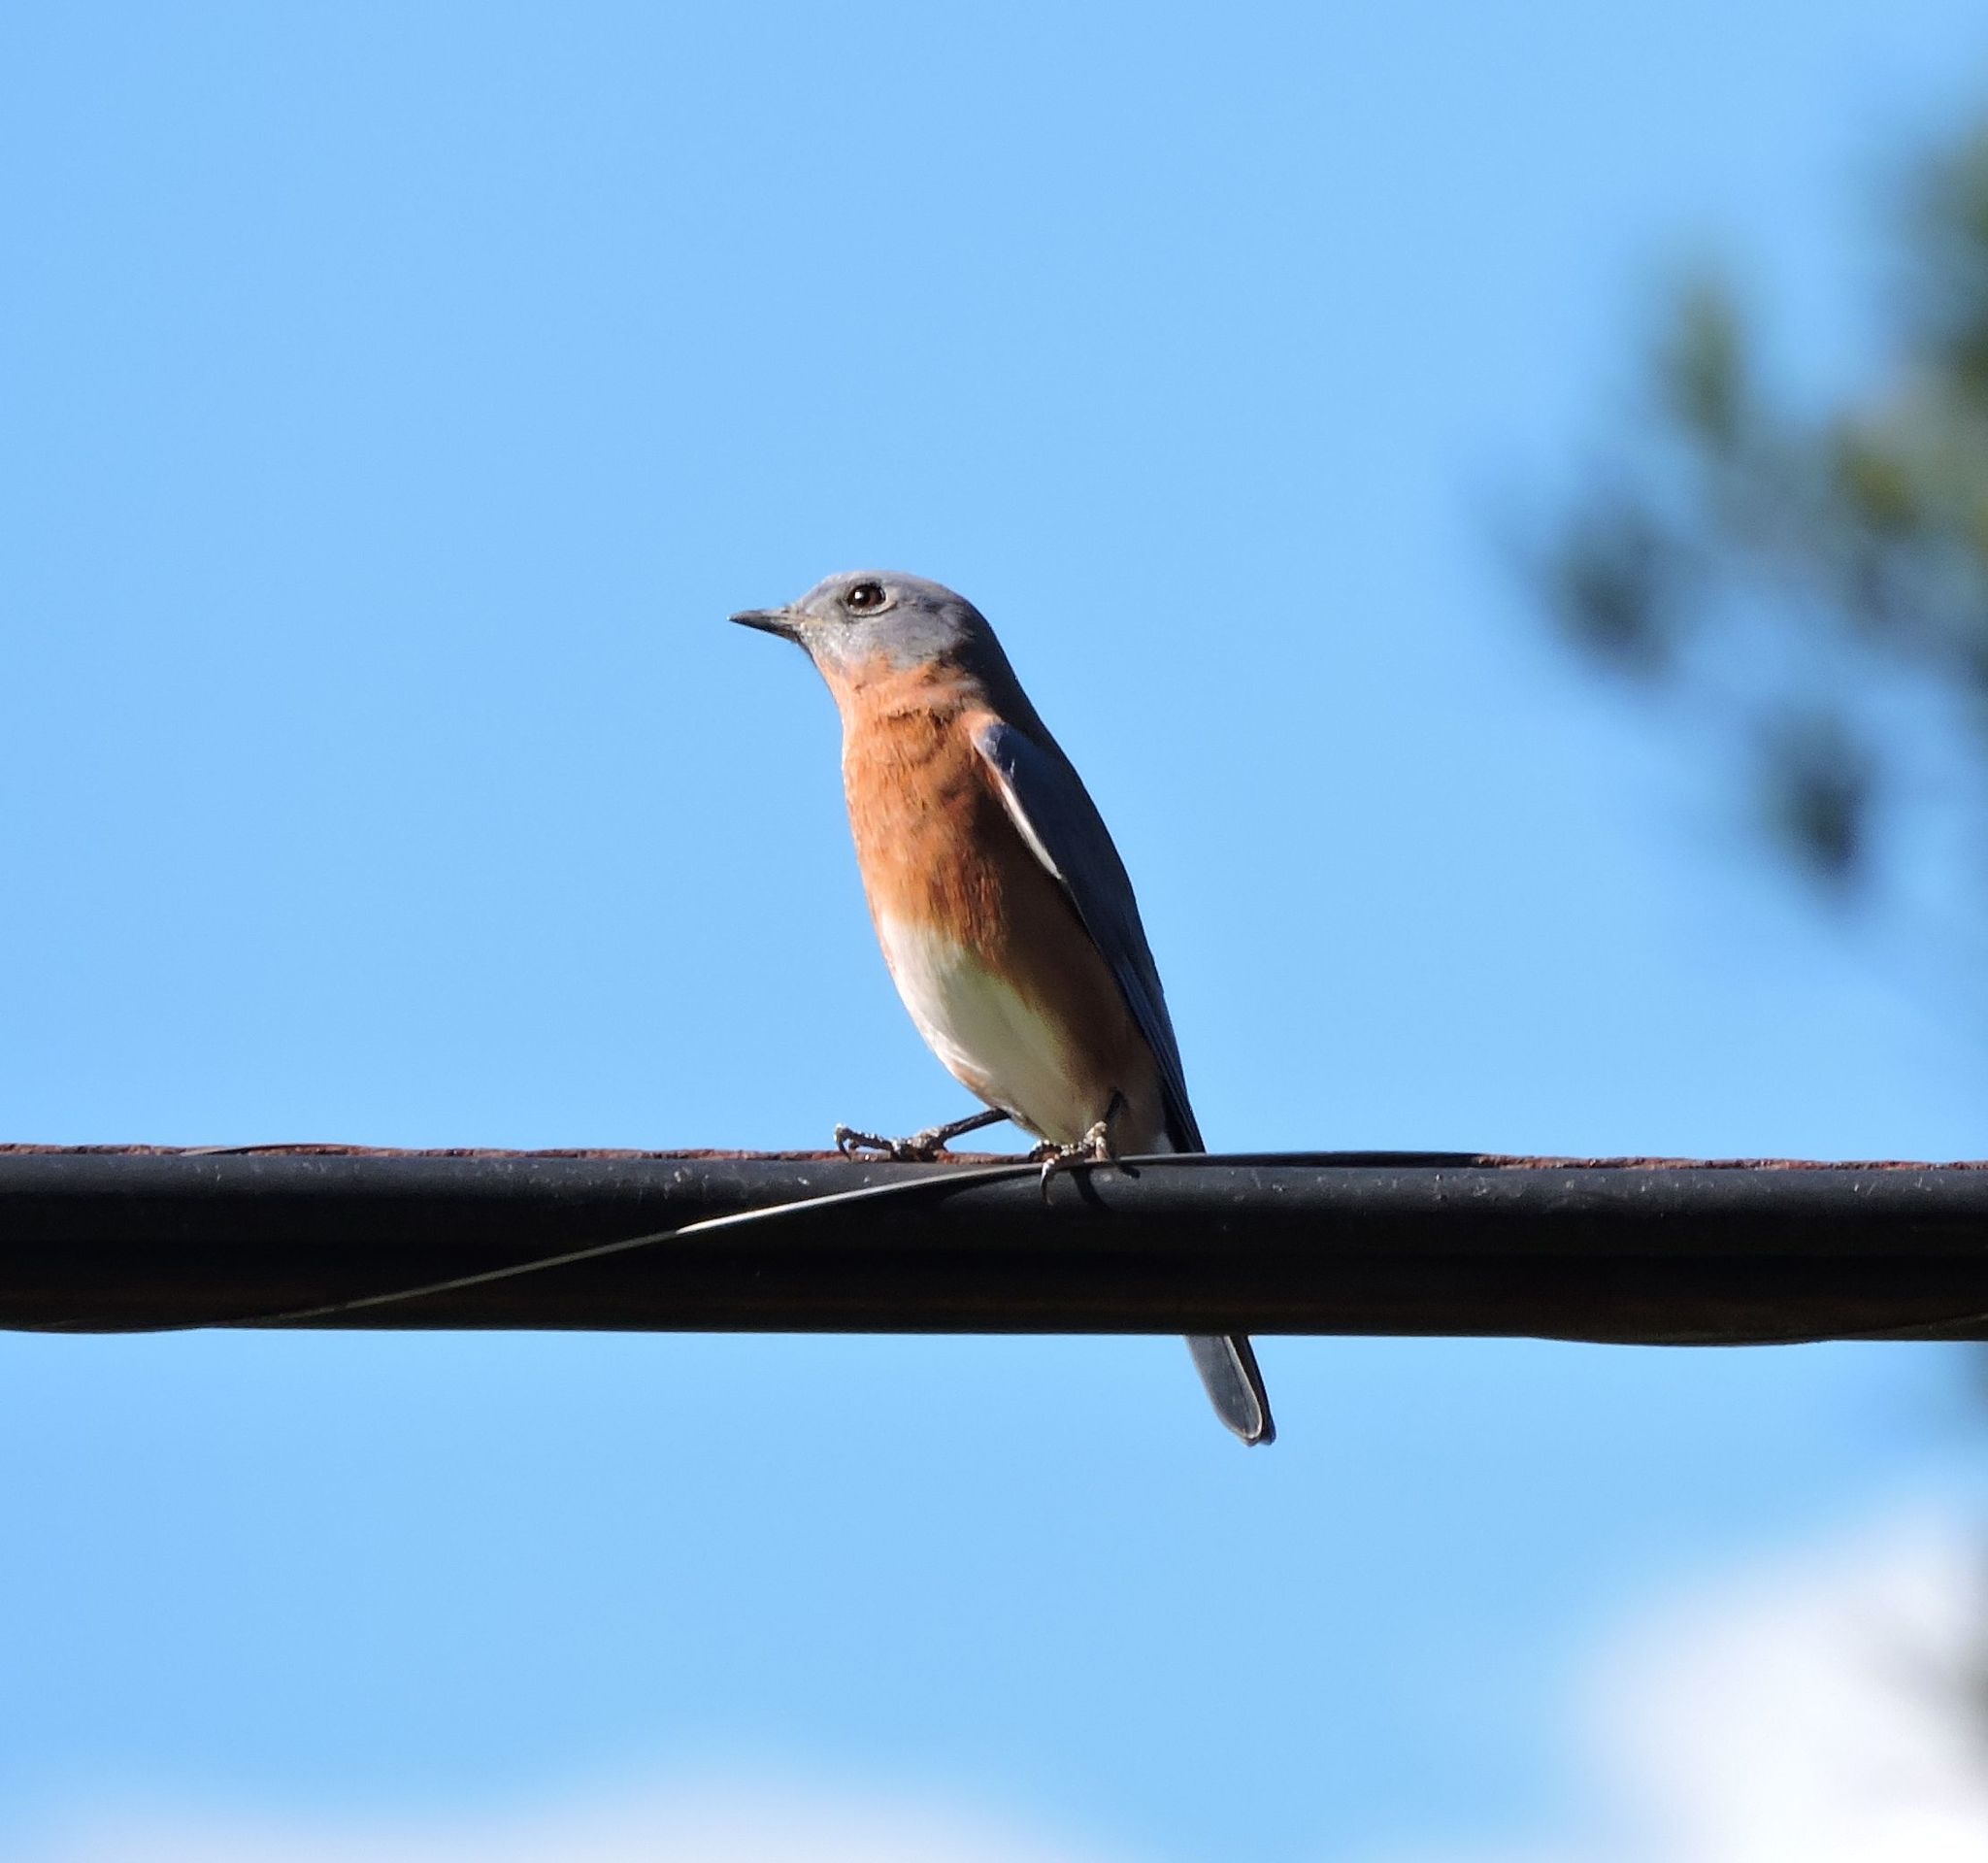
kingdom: Animalia
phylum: Chordata
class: Aves
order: Passeriformes
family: Turdidae
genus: Sialia
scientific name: Sialia sialis
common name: Eastern bluebird
